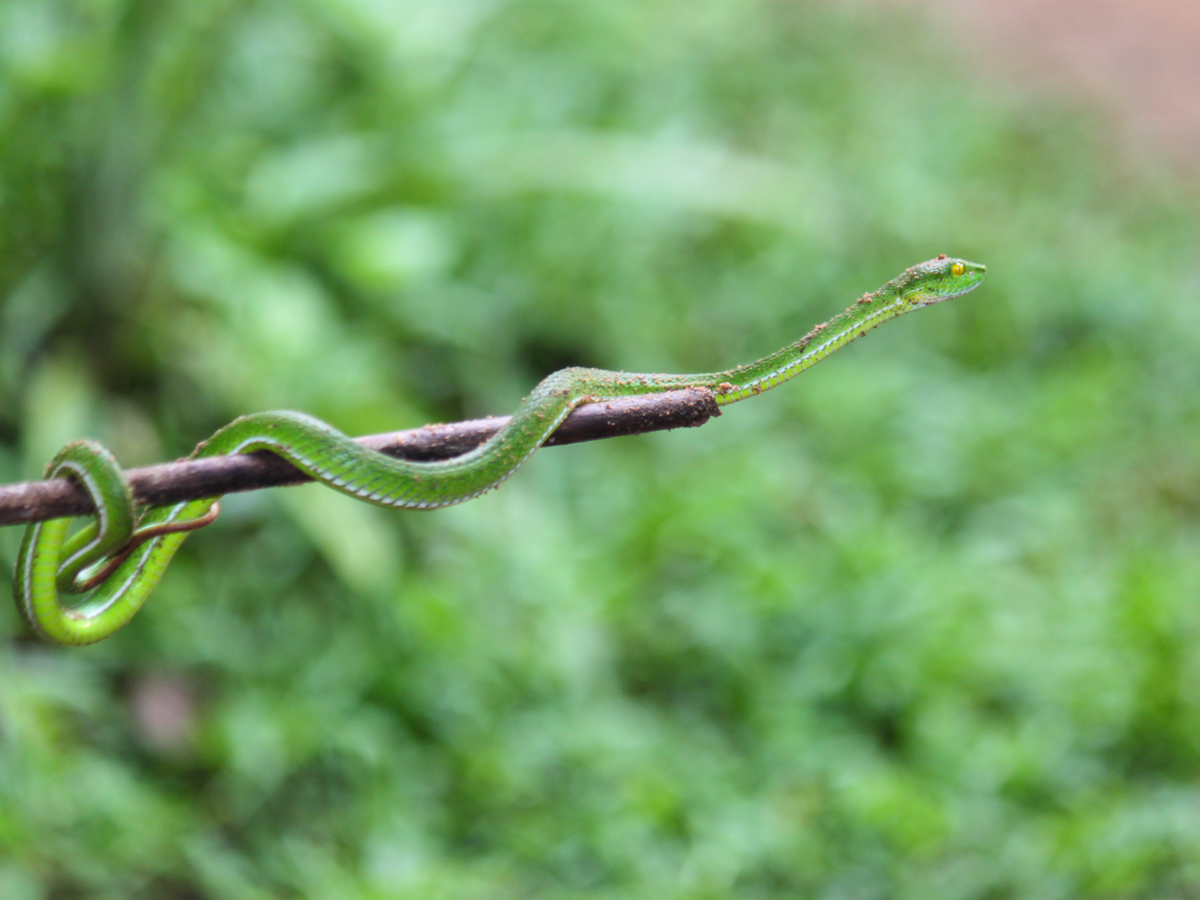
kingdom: Animalia
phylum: Chordata
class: Squamata
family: Viperidae
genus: Trimeresurus
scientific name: Trimeresurus cardamomensis
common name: Cardamom mountains green pitviper
